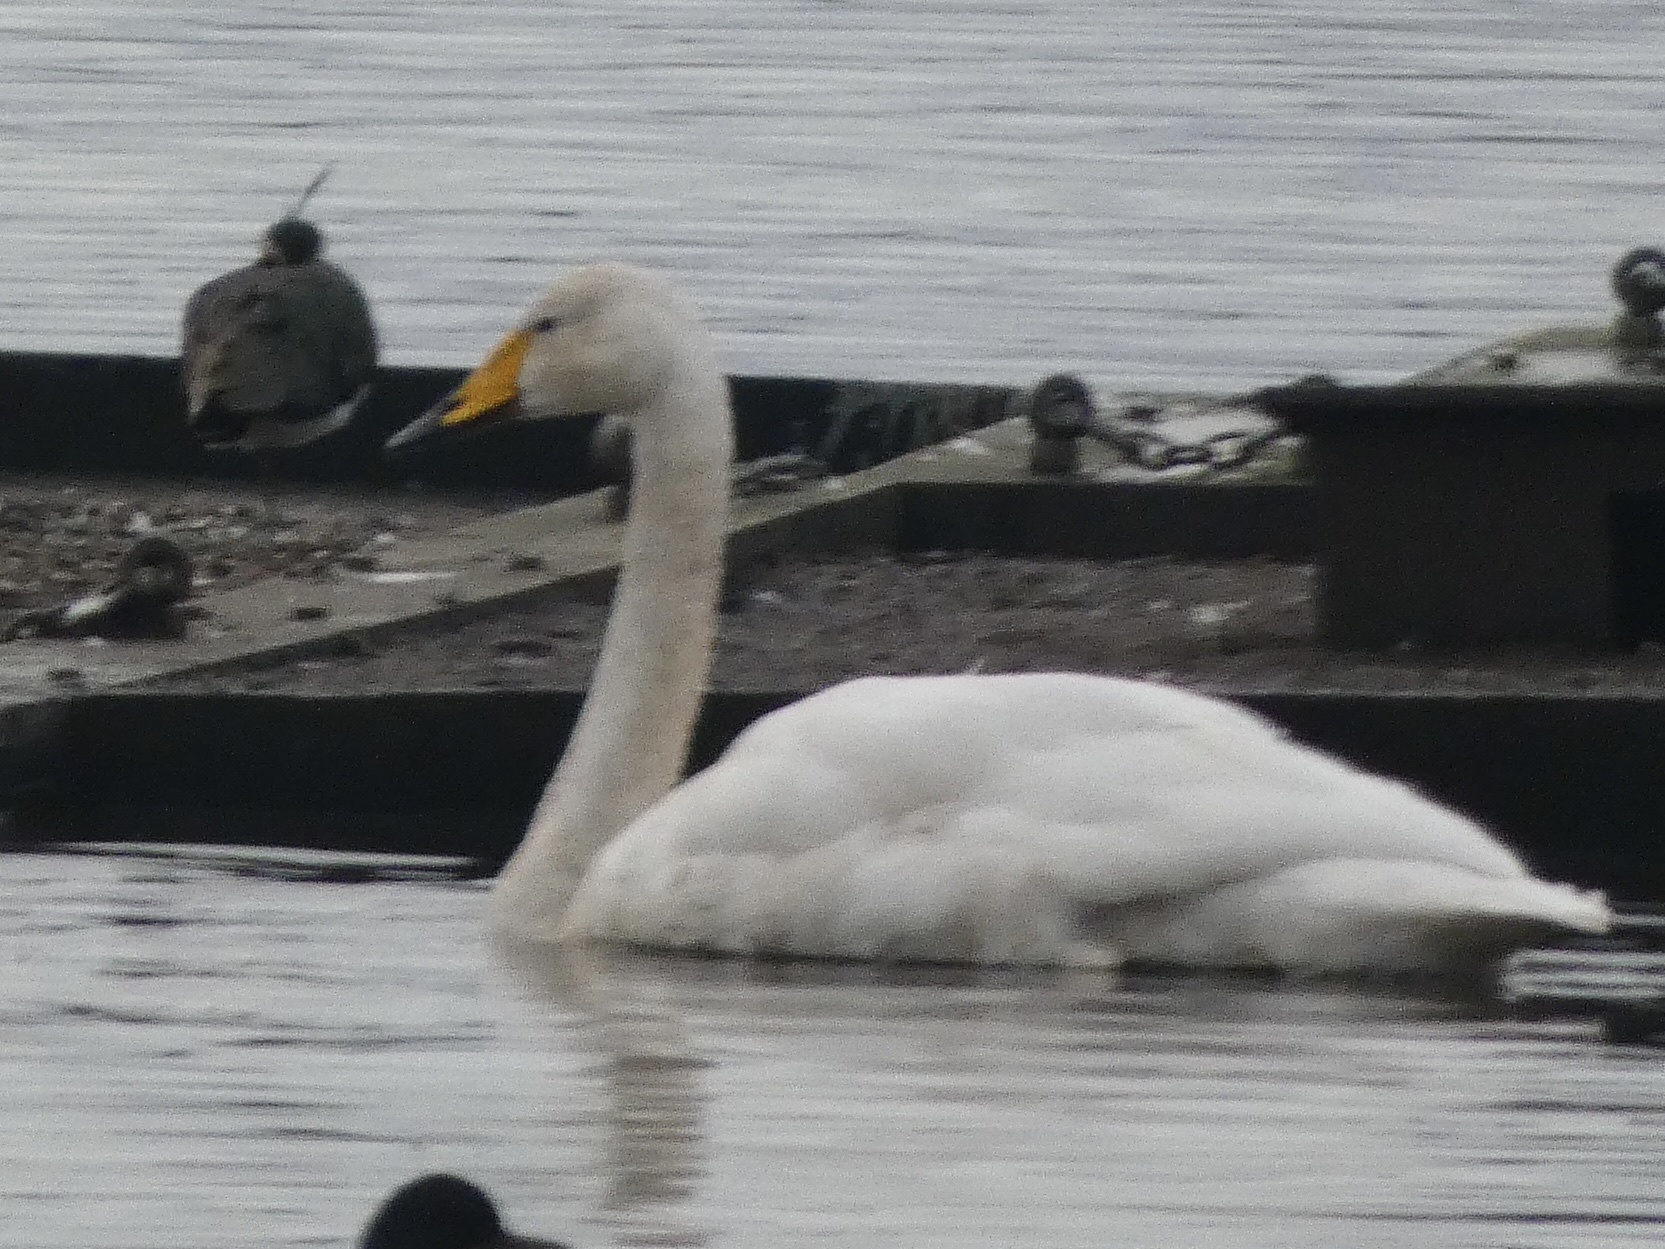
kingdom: Animalia
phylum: Chordata
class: Aves
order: Anseriformes
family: Anatidae
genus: Cygnus
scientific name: Cygnus cygnus
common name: Whooper swan
